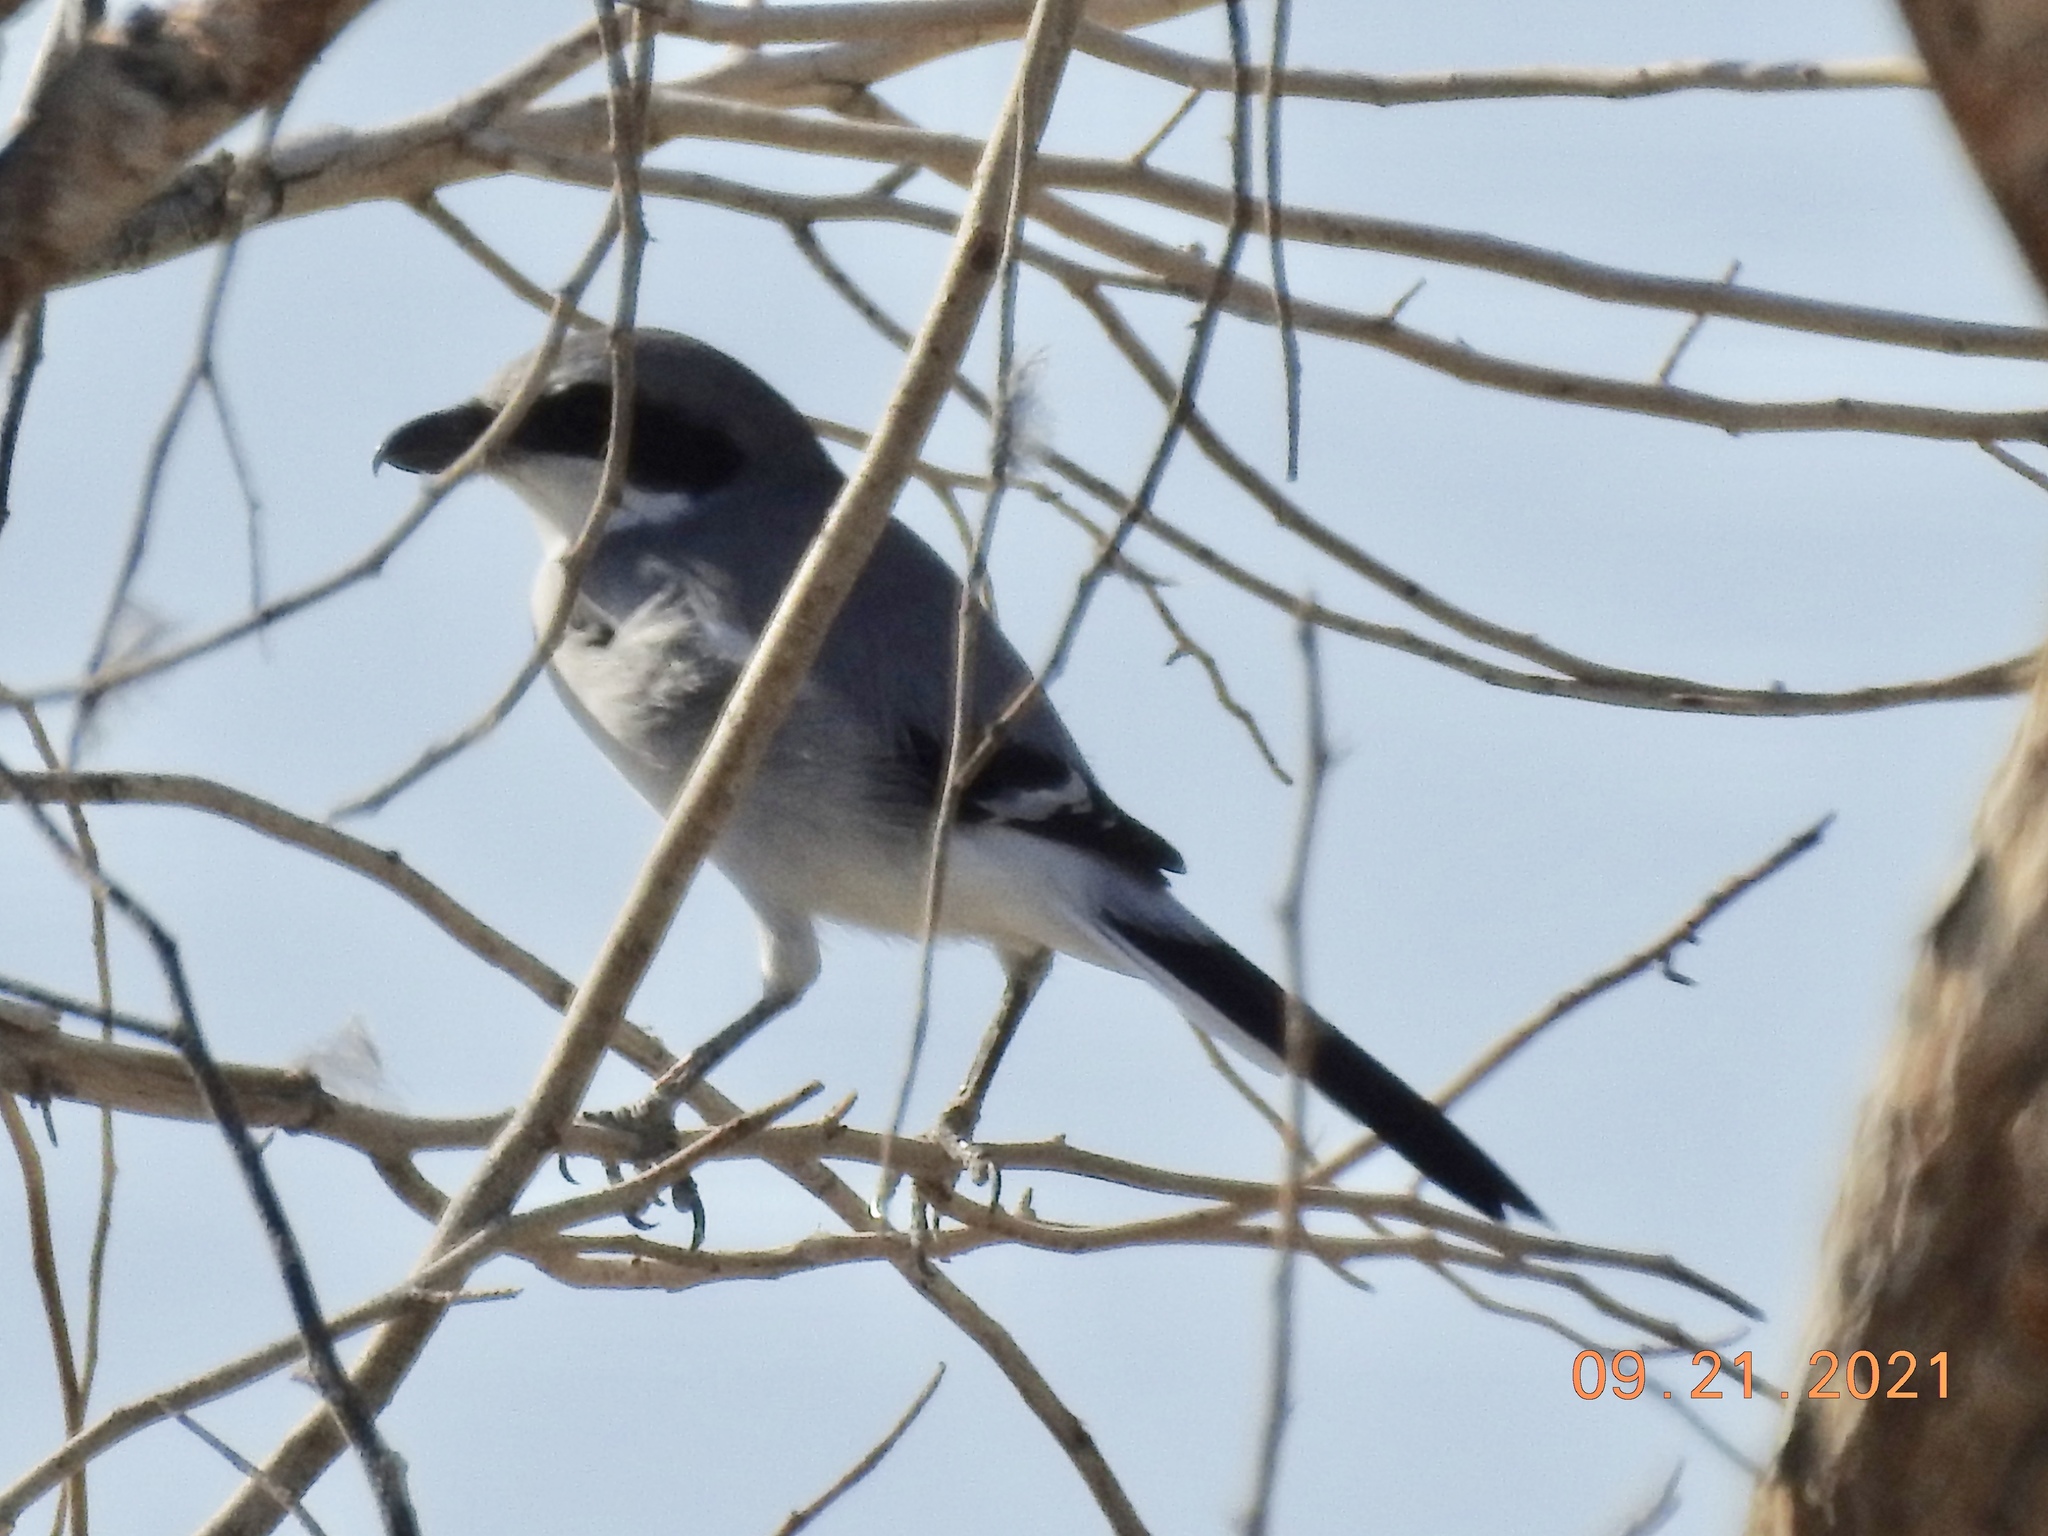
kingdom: Animalia
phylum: Chordata
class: Aves
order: Passeriformes
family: Laniidae
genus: Lanius
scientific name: Lanius ludovicianus
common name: Loggerhead shrike
